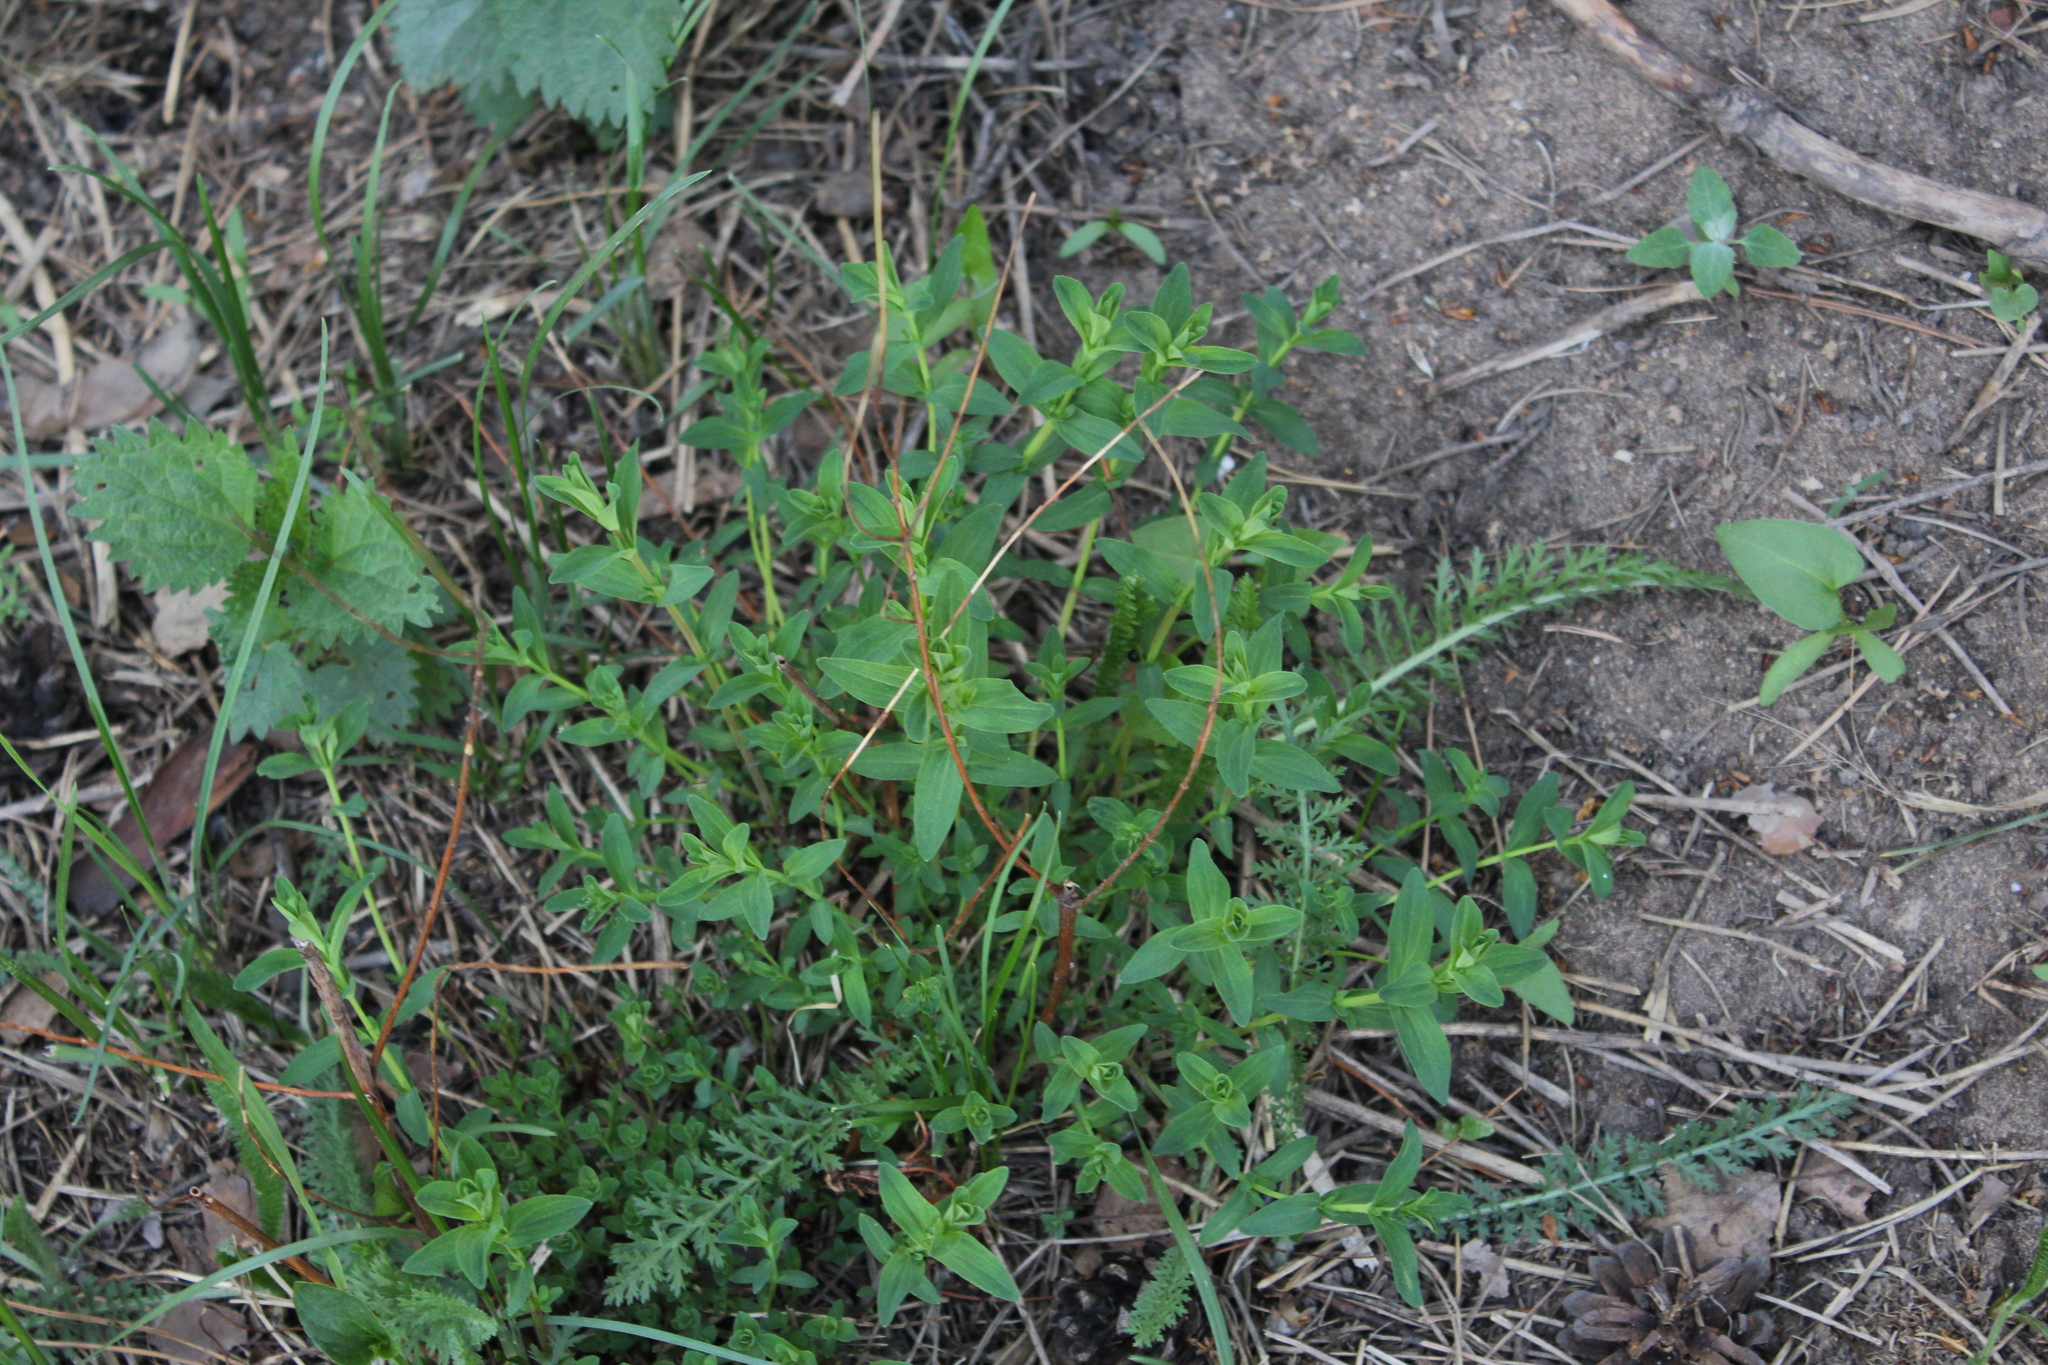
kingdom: Plantae
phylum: Tracheophyta
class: Magnoliopsida
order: Malpighiales
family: Hypericaceae
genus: Hypericum
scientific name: Hypericum perforatum
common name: Common st. johnswort
